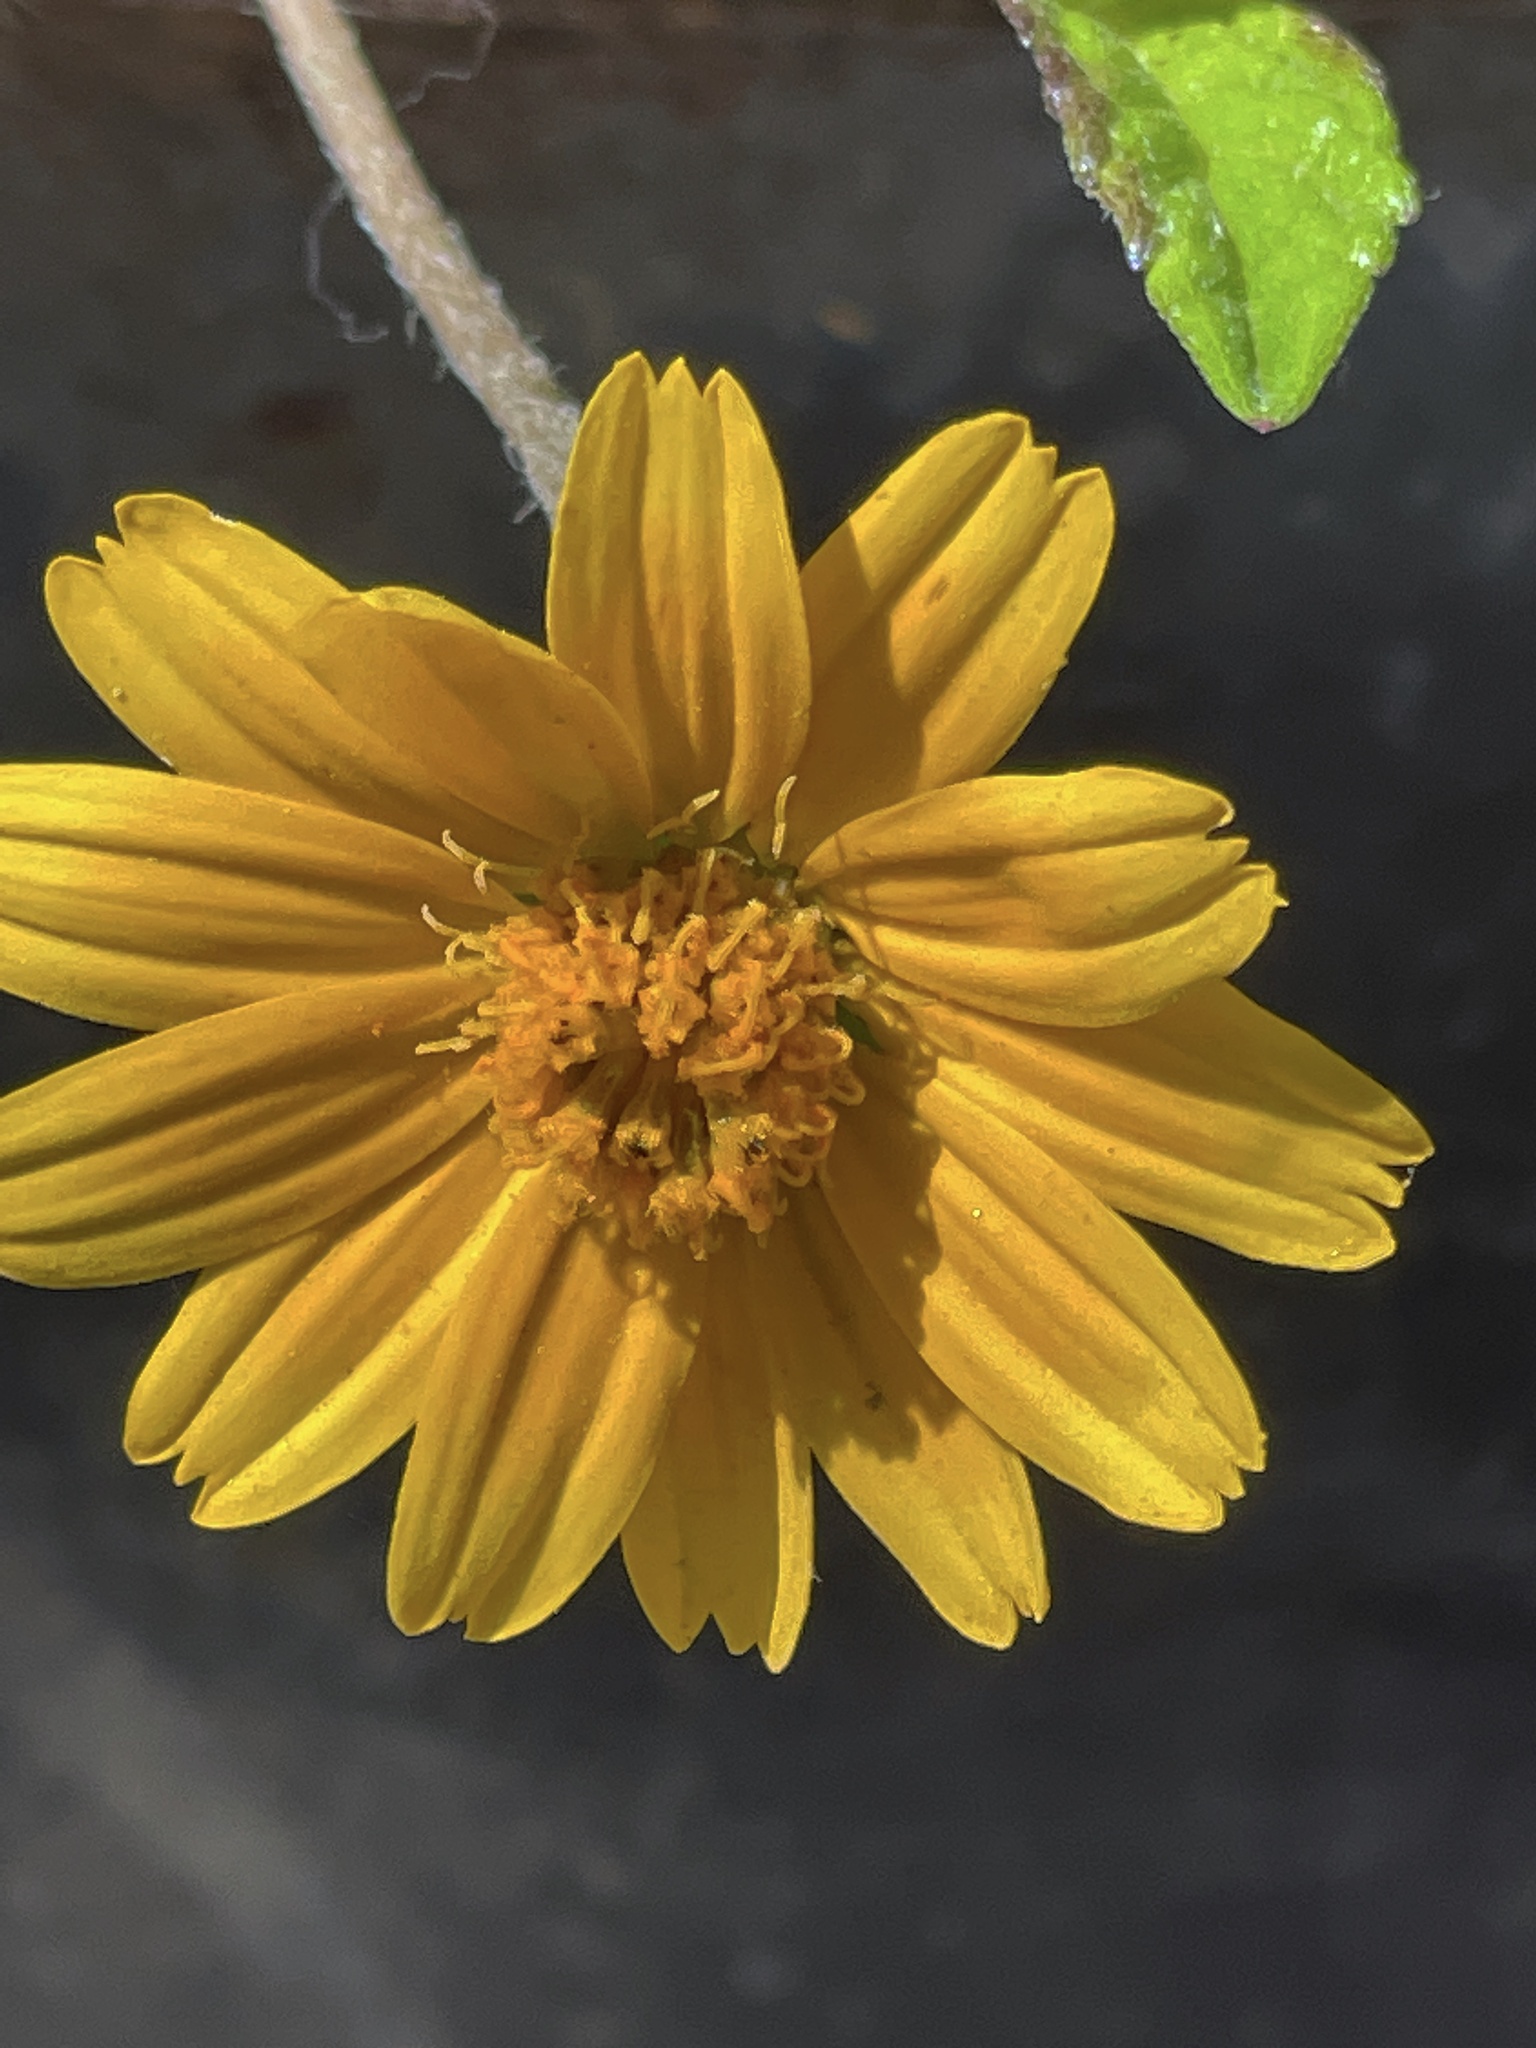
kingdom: Plantae
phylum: Tracheophyta
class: Magnoliopsida
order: Asterales
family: Asteraceae
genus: Sphagneticola
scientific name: Sphagneticola trilobata
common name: Bay biscayne creeping-oxeye
